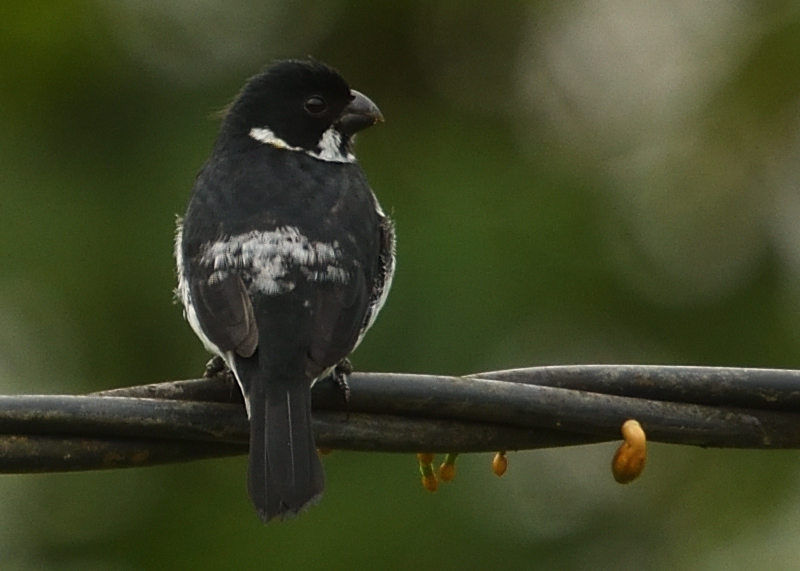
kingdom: Animalia
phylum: Chordata
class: Aves
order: Passeriformes
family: Thraupidae
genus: Sporophila
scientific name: Sporophila corvina
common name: Variable seedeater
